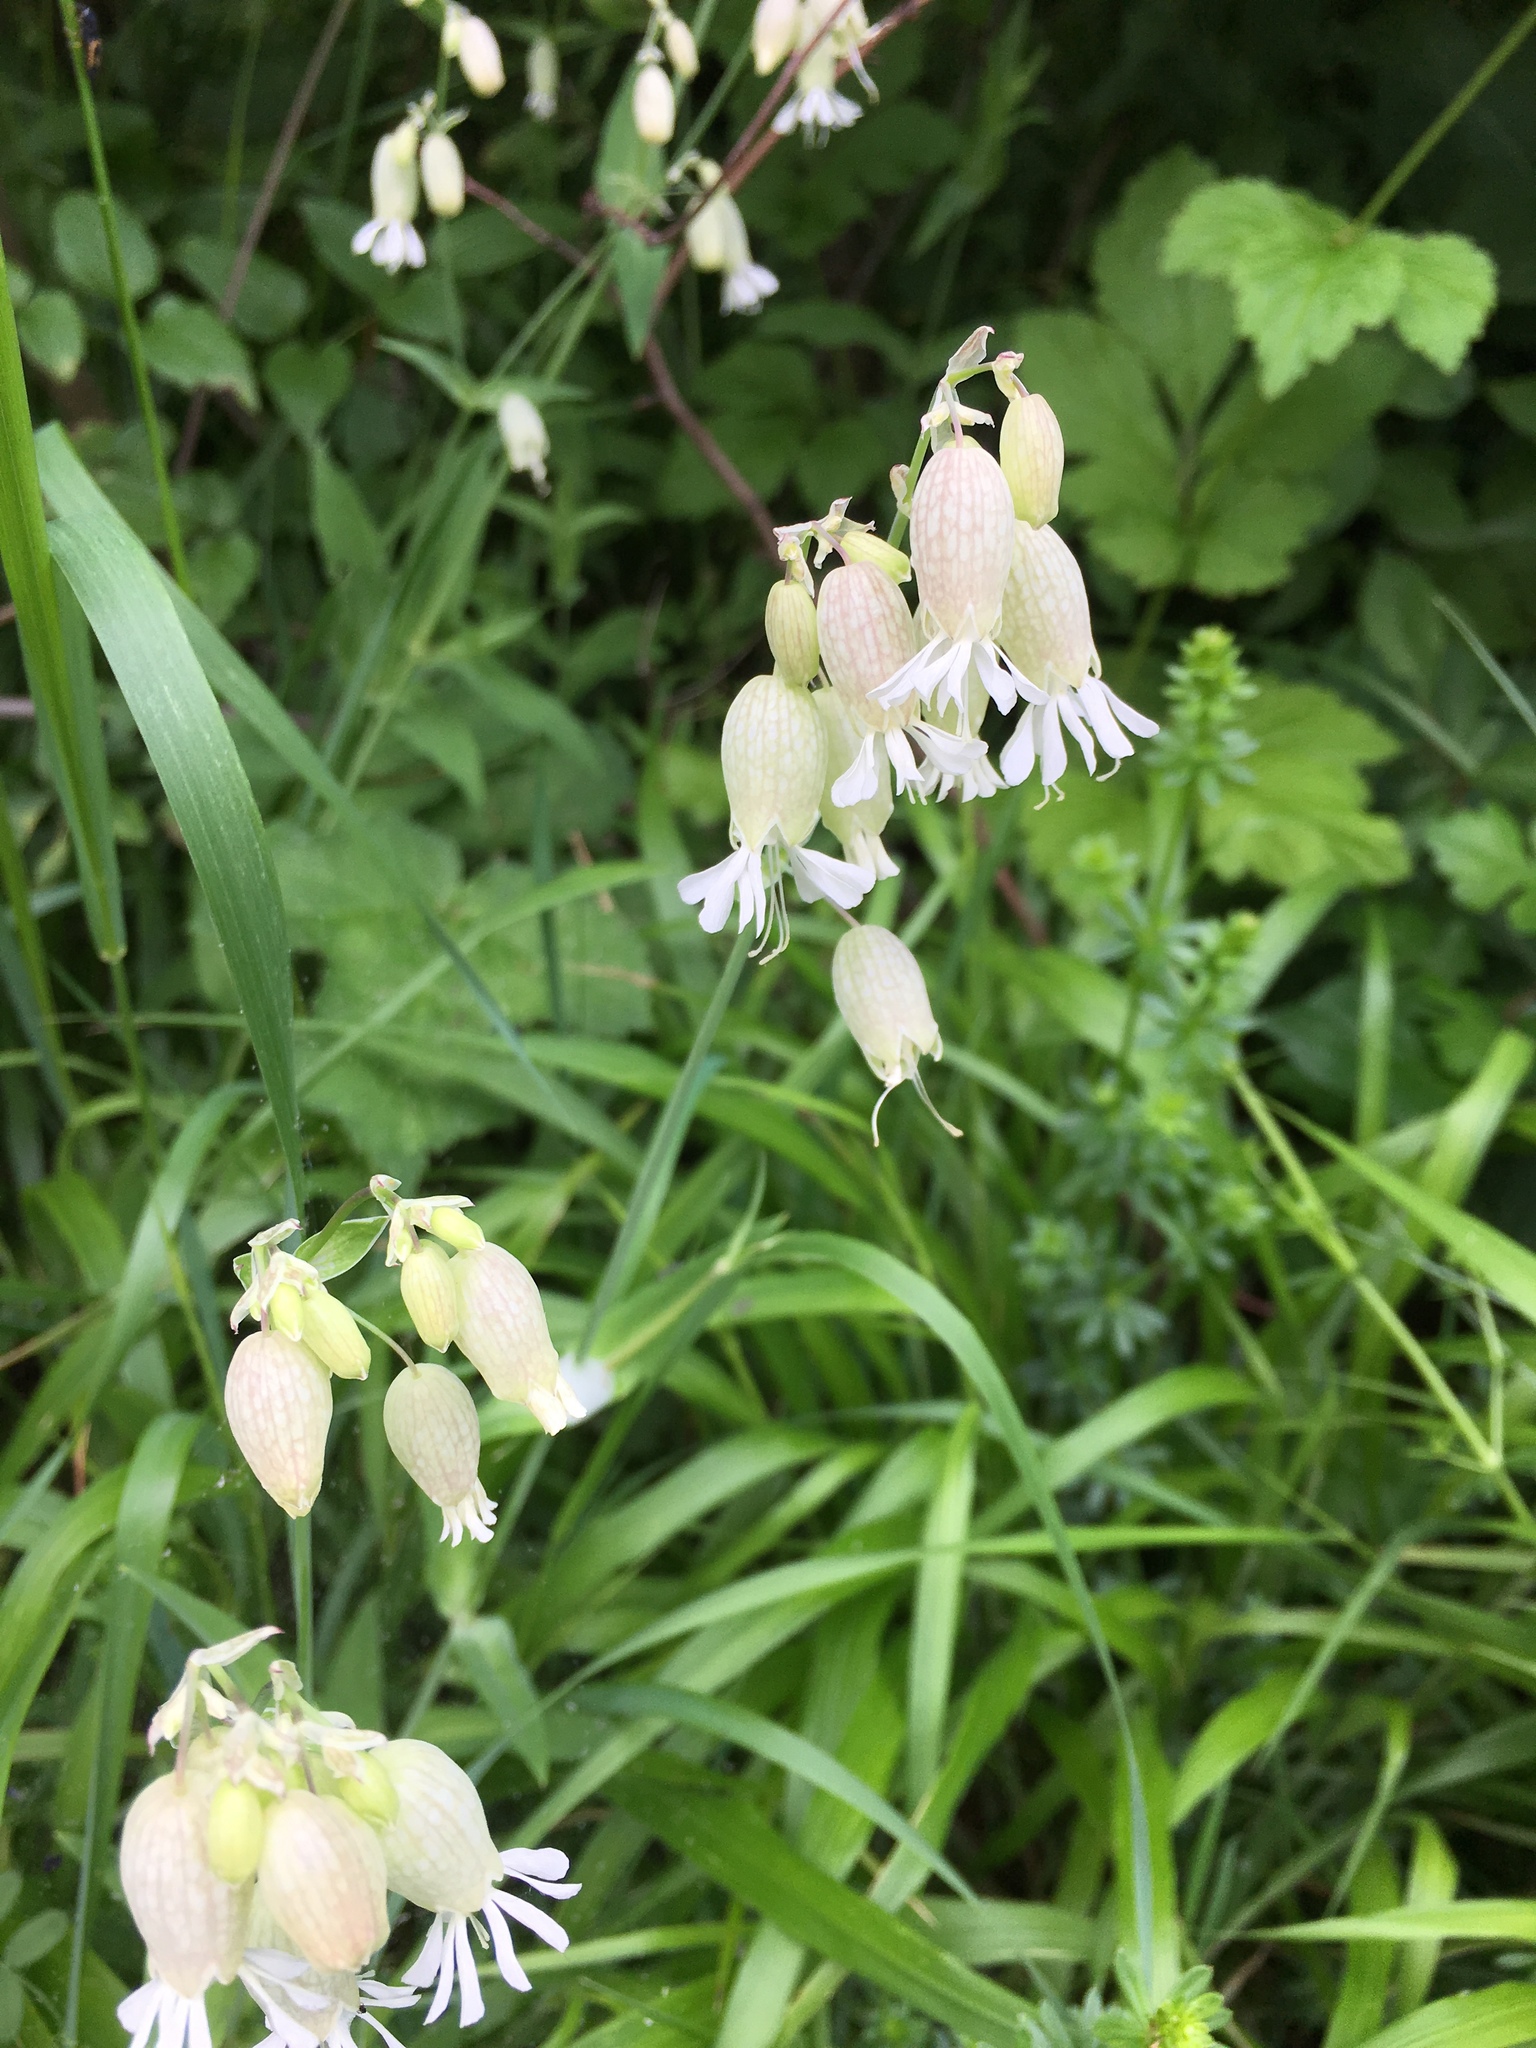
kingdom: Plantae
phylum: Tracheophyta
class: Magnoliopsida
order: Caryophyllales
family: Caryophyllaceae
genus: Silene
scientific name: Silene vulgaris
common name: Bladder campion
